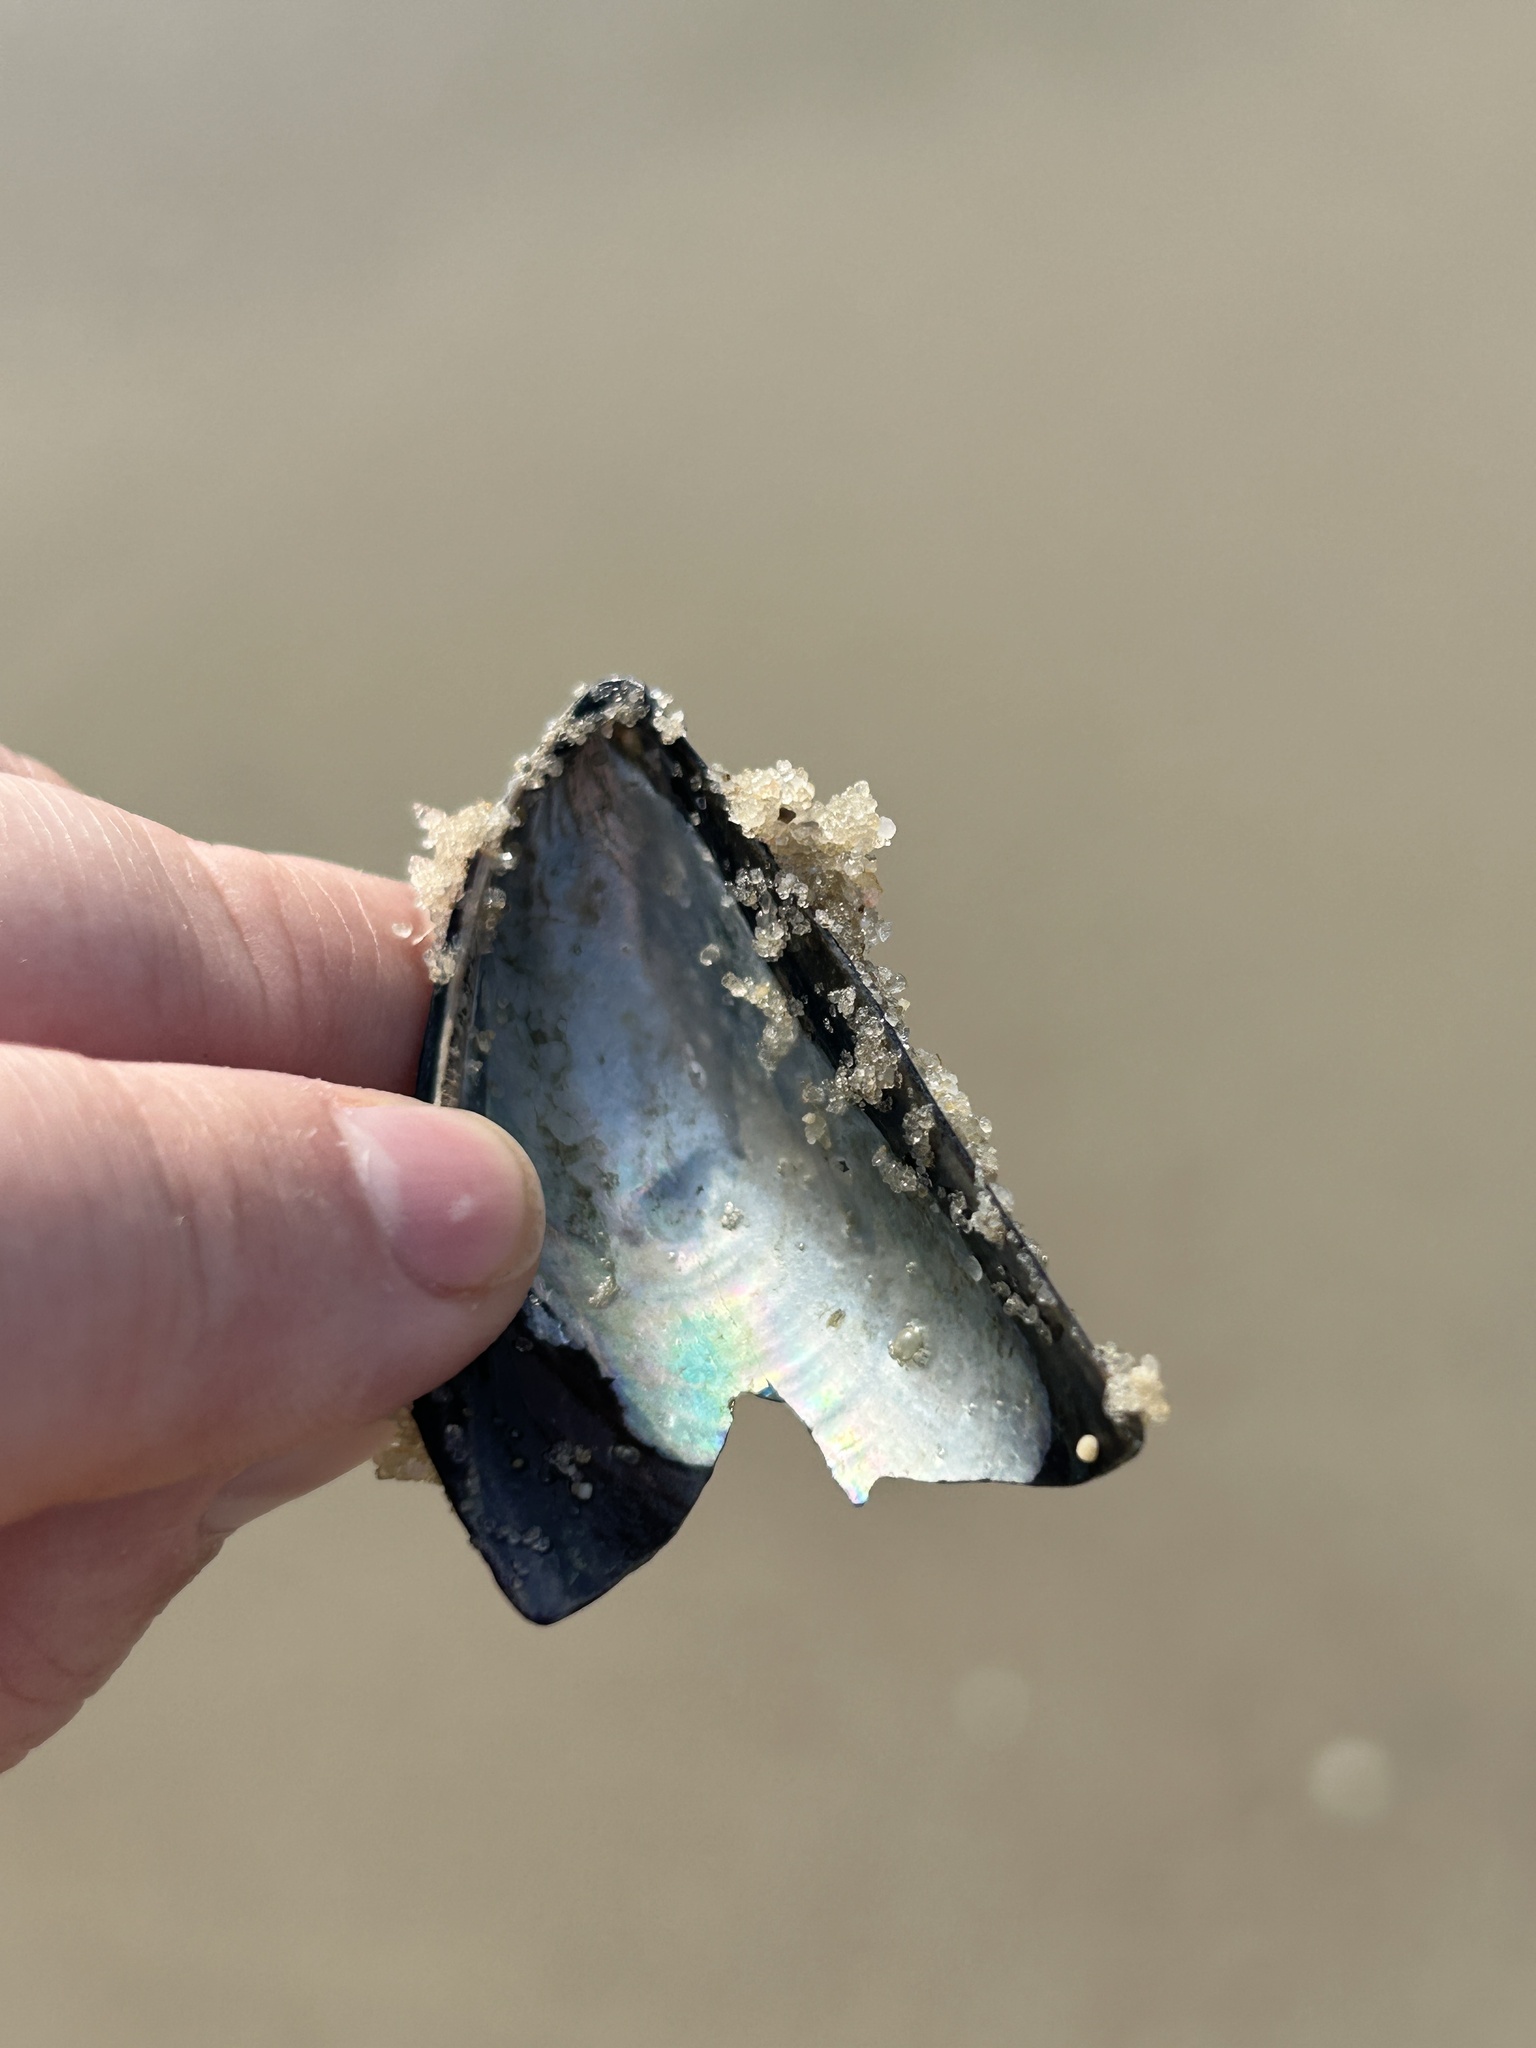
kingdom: Animalia
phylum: Mollusca
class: Bivalvia
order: Mytilida
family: Mytilidae
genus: Mytilus
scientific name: Mytilus edulis
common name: Blue mussel
